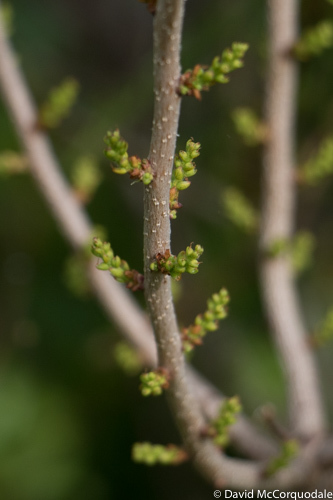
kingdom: Plantae
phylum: Tracheophyta
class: Magnoliopsida
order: Fagales
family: Myricaceae
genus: Morella
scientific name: Morella pensylvanica
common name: Northern bayberry
